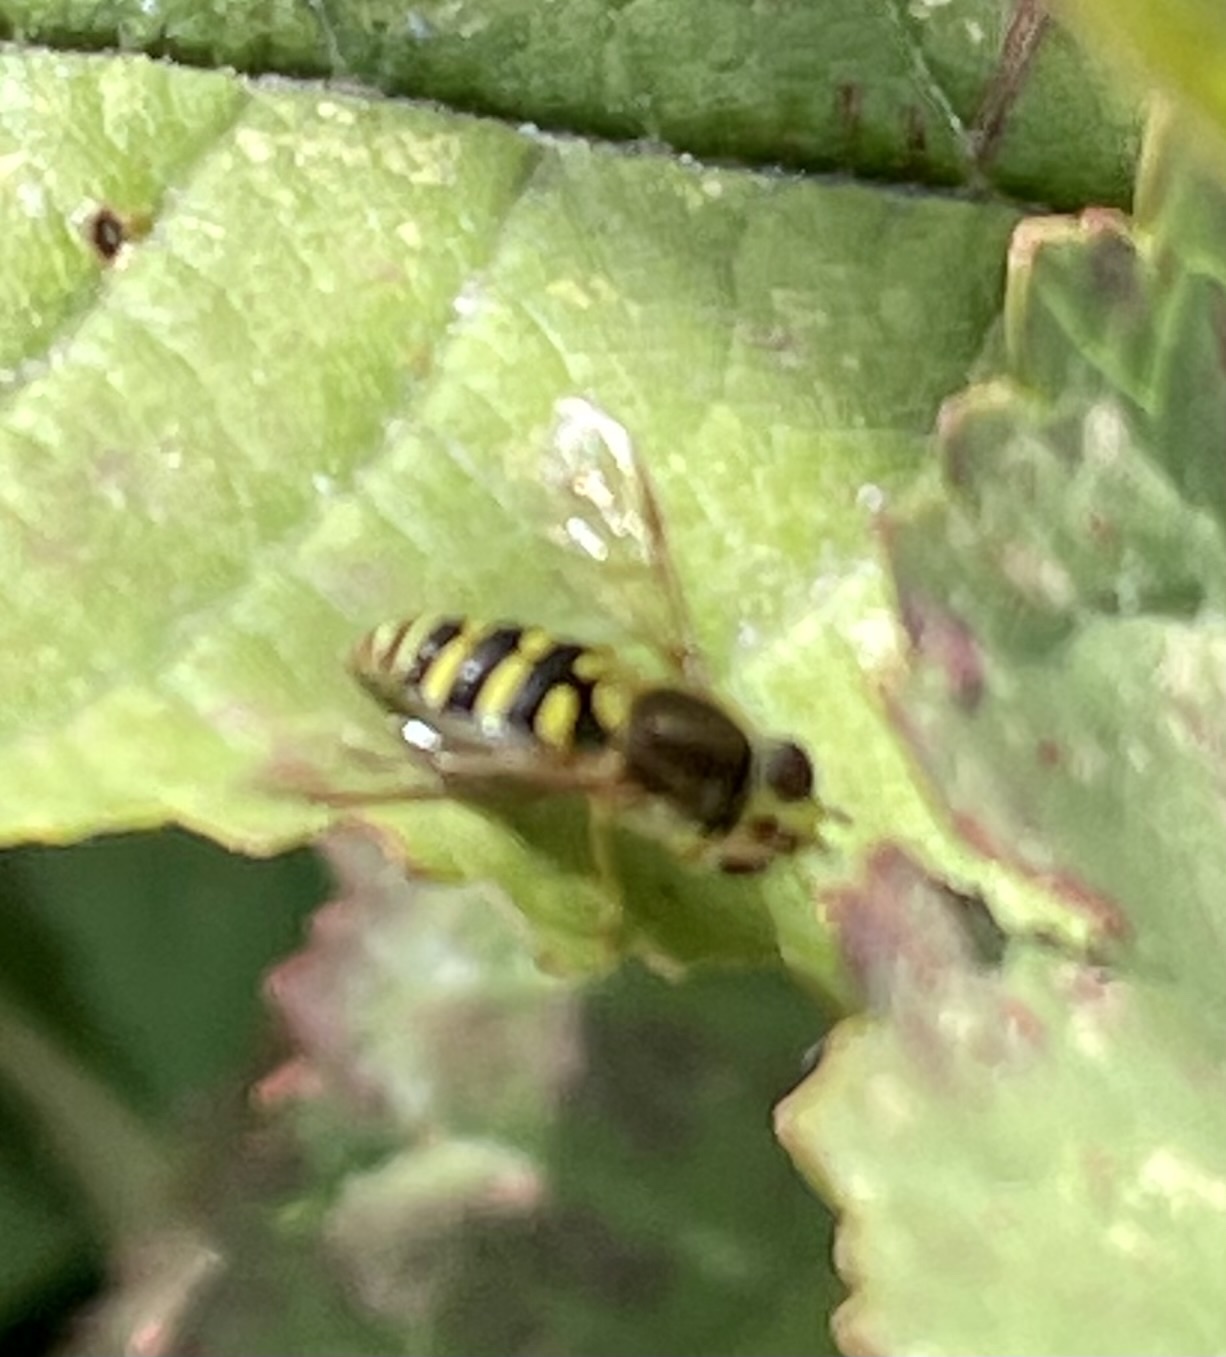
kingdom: Animalia
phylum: Arthropoda
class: Insecta
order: Diptera
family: Syrphidae
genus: Syrphus
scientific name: Syrphus opinator
